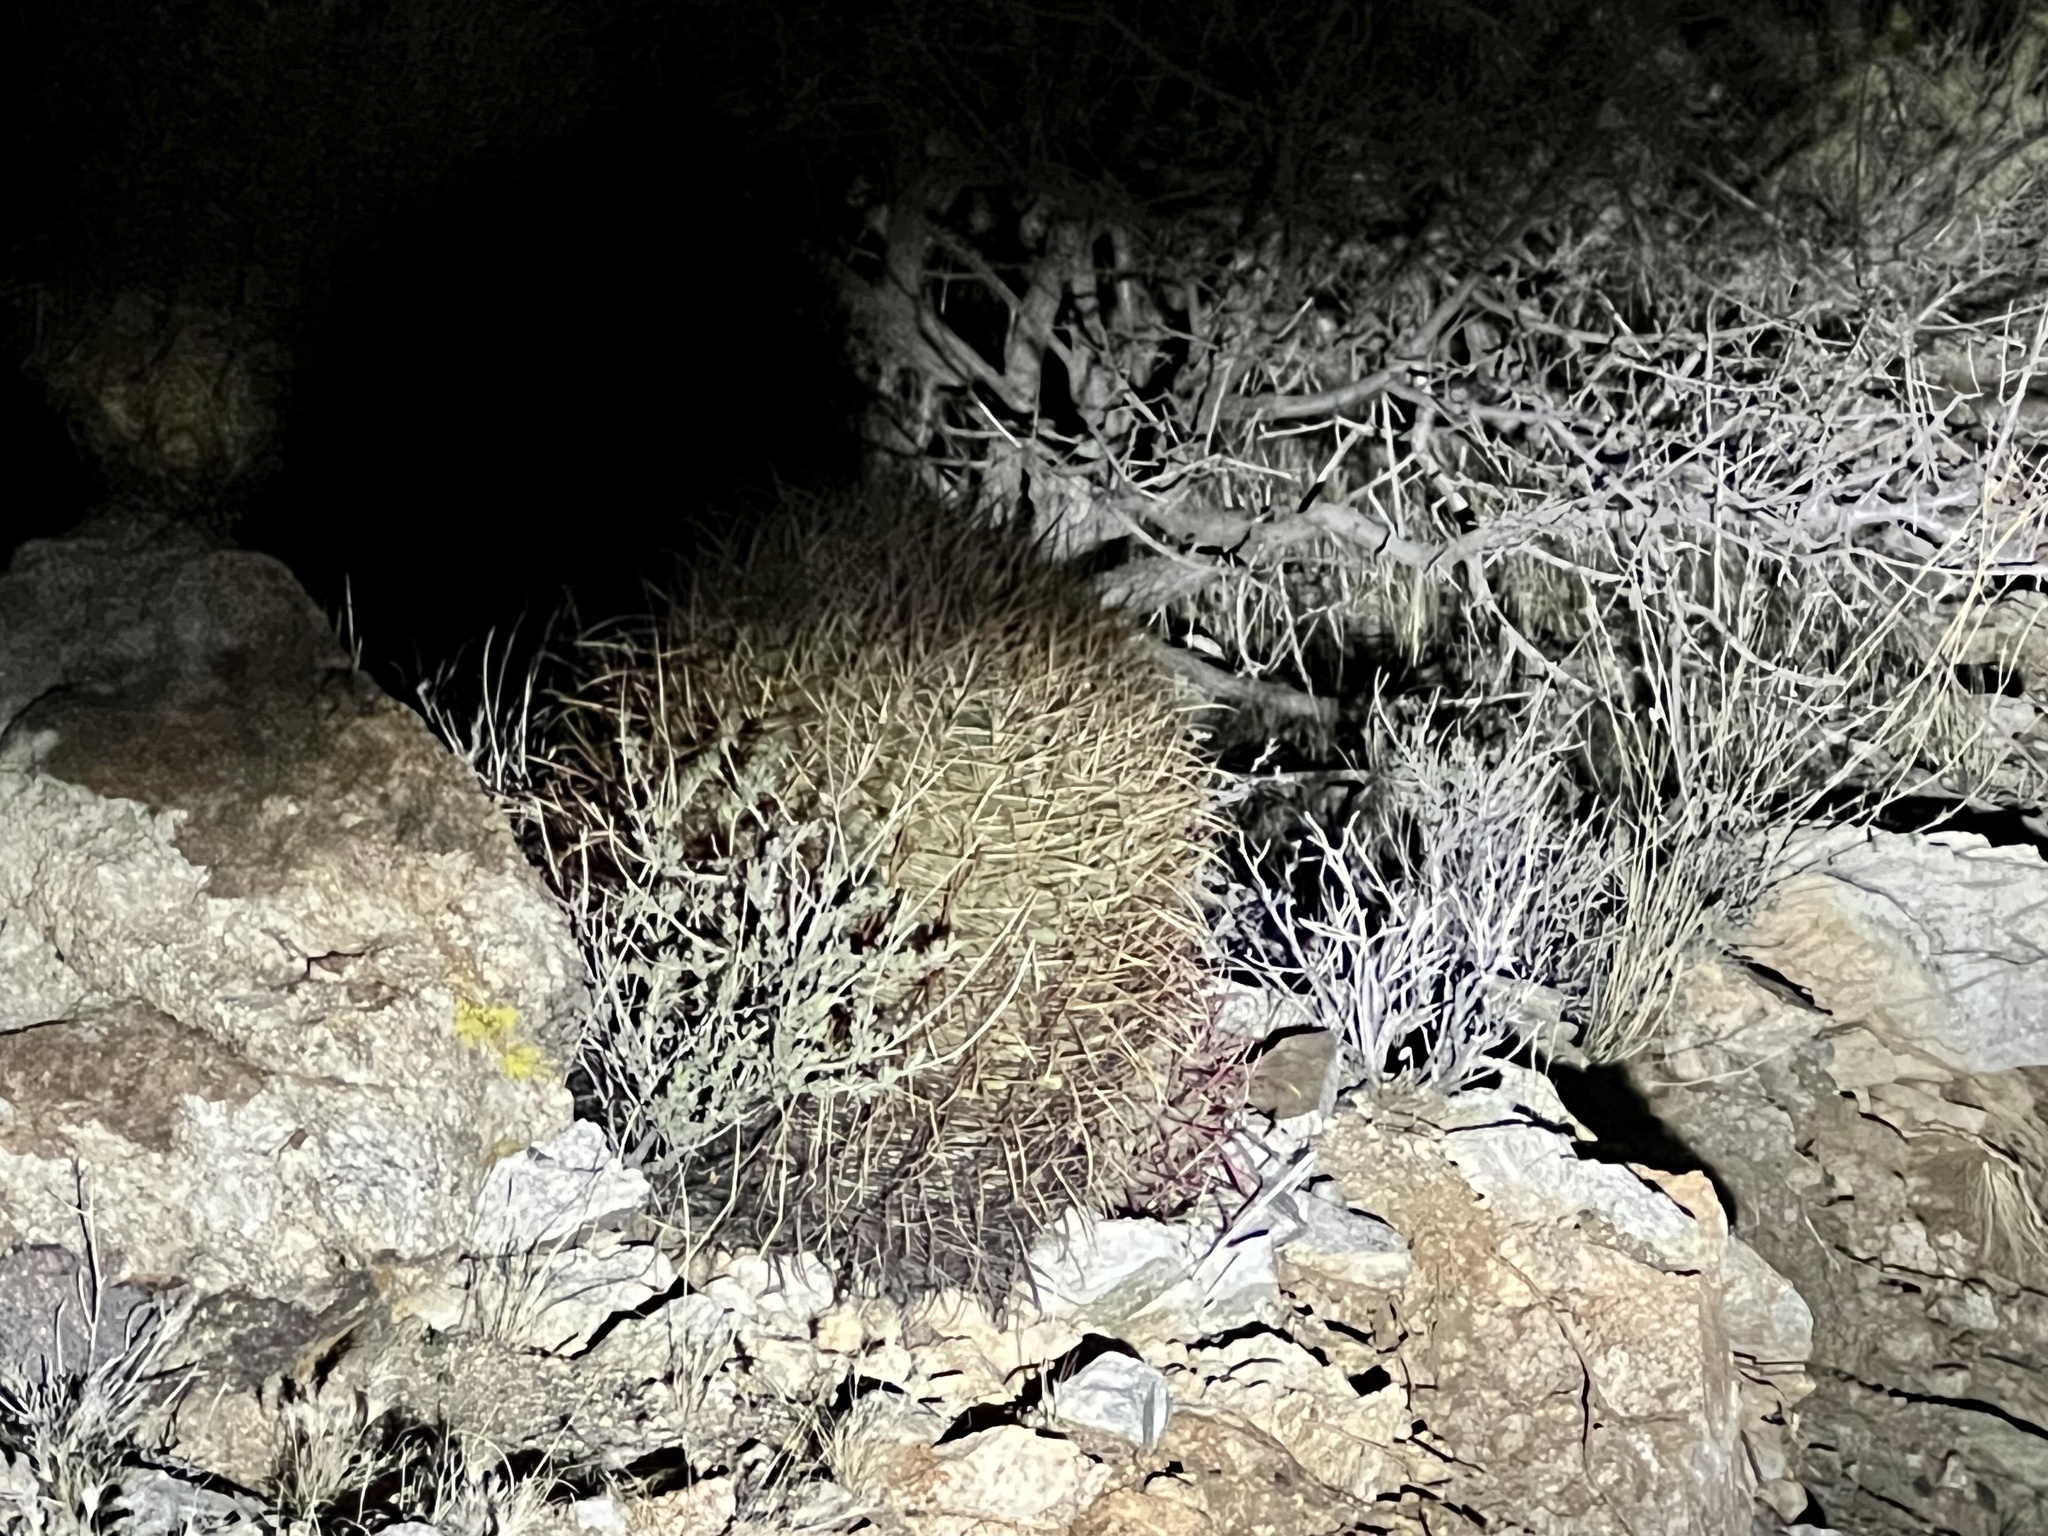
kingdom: Plantae
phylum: Tracheophyta
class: Magnoliopsida
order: Caryophyllales
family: Cactaceae
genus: Ferocactus
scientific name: Ferocactus cylindraceus
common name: California barrel cactus
